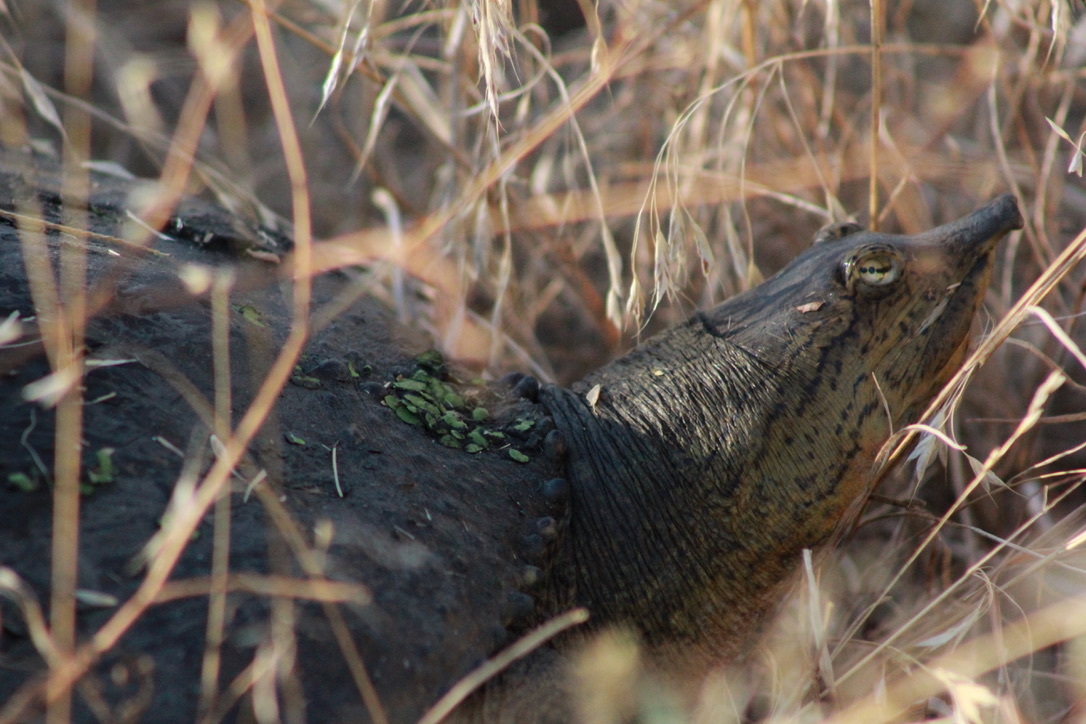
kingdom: Animalia
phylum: Chordata
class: Testudines
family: Trionychidae
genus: Apalone
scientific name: Apalone spinifera
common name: Spiny softshell turtle
